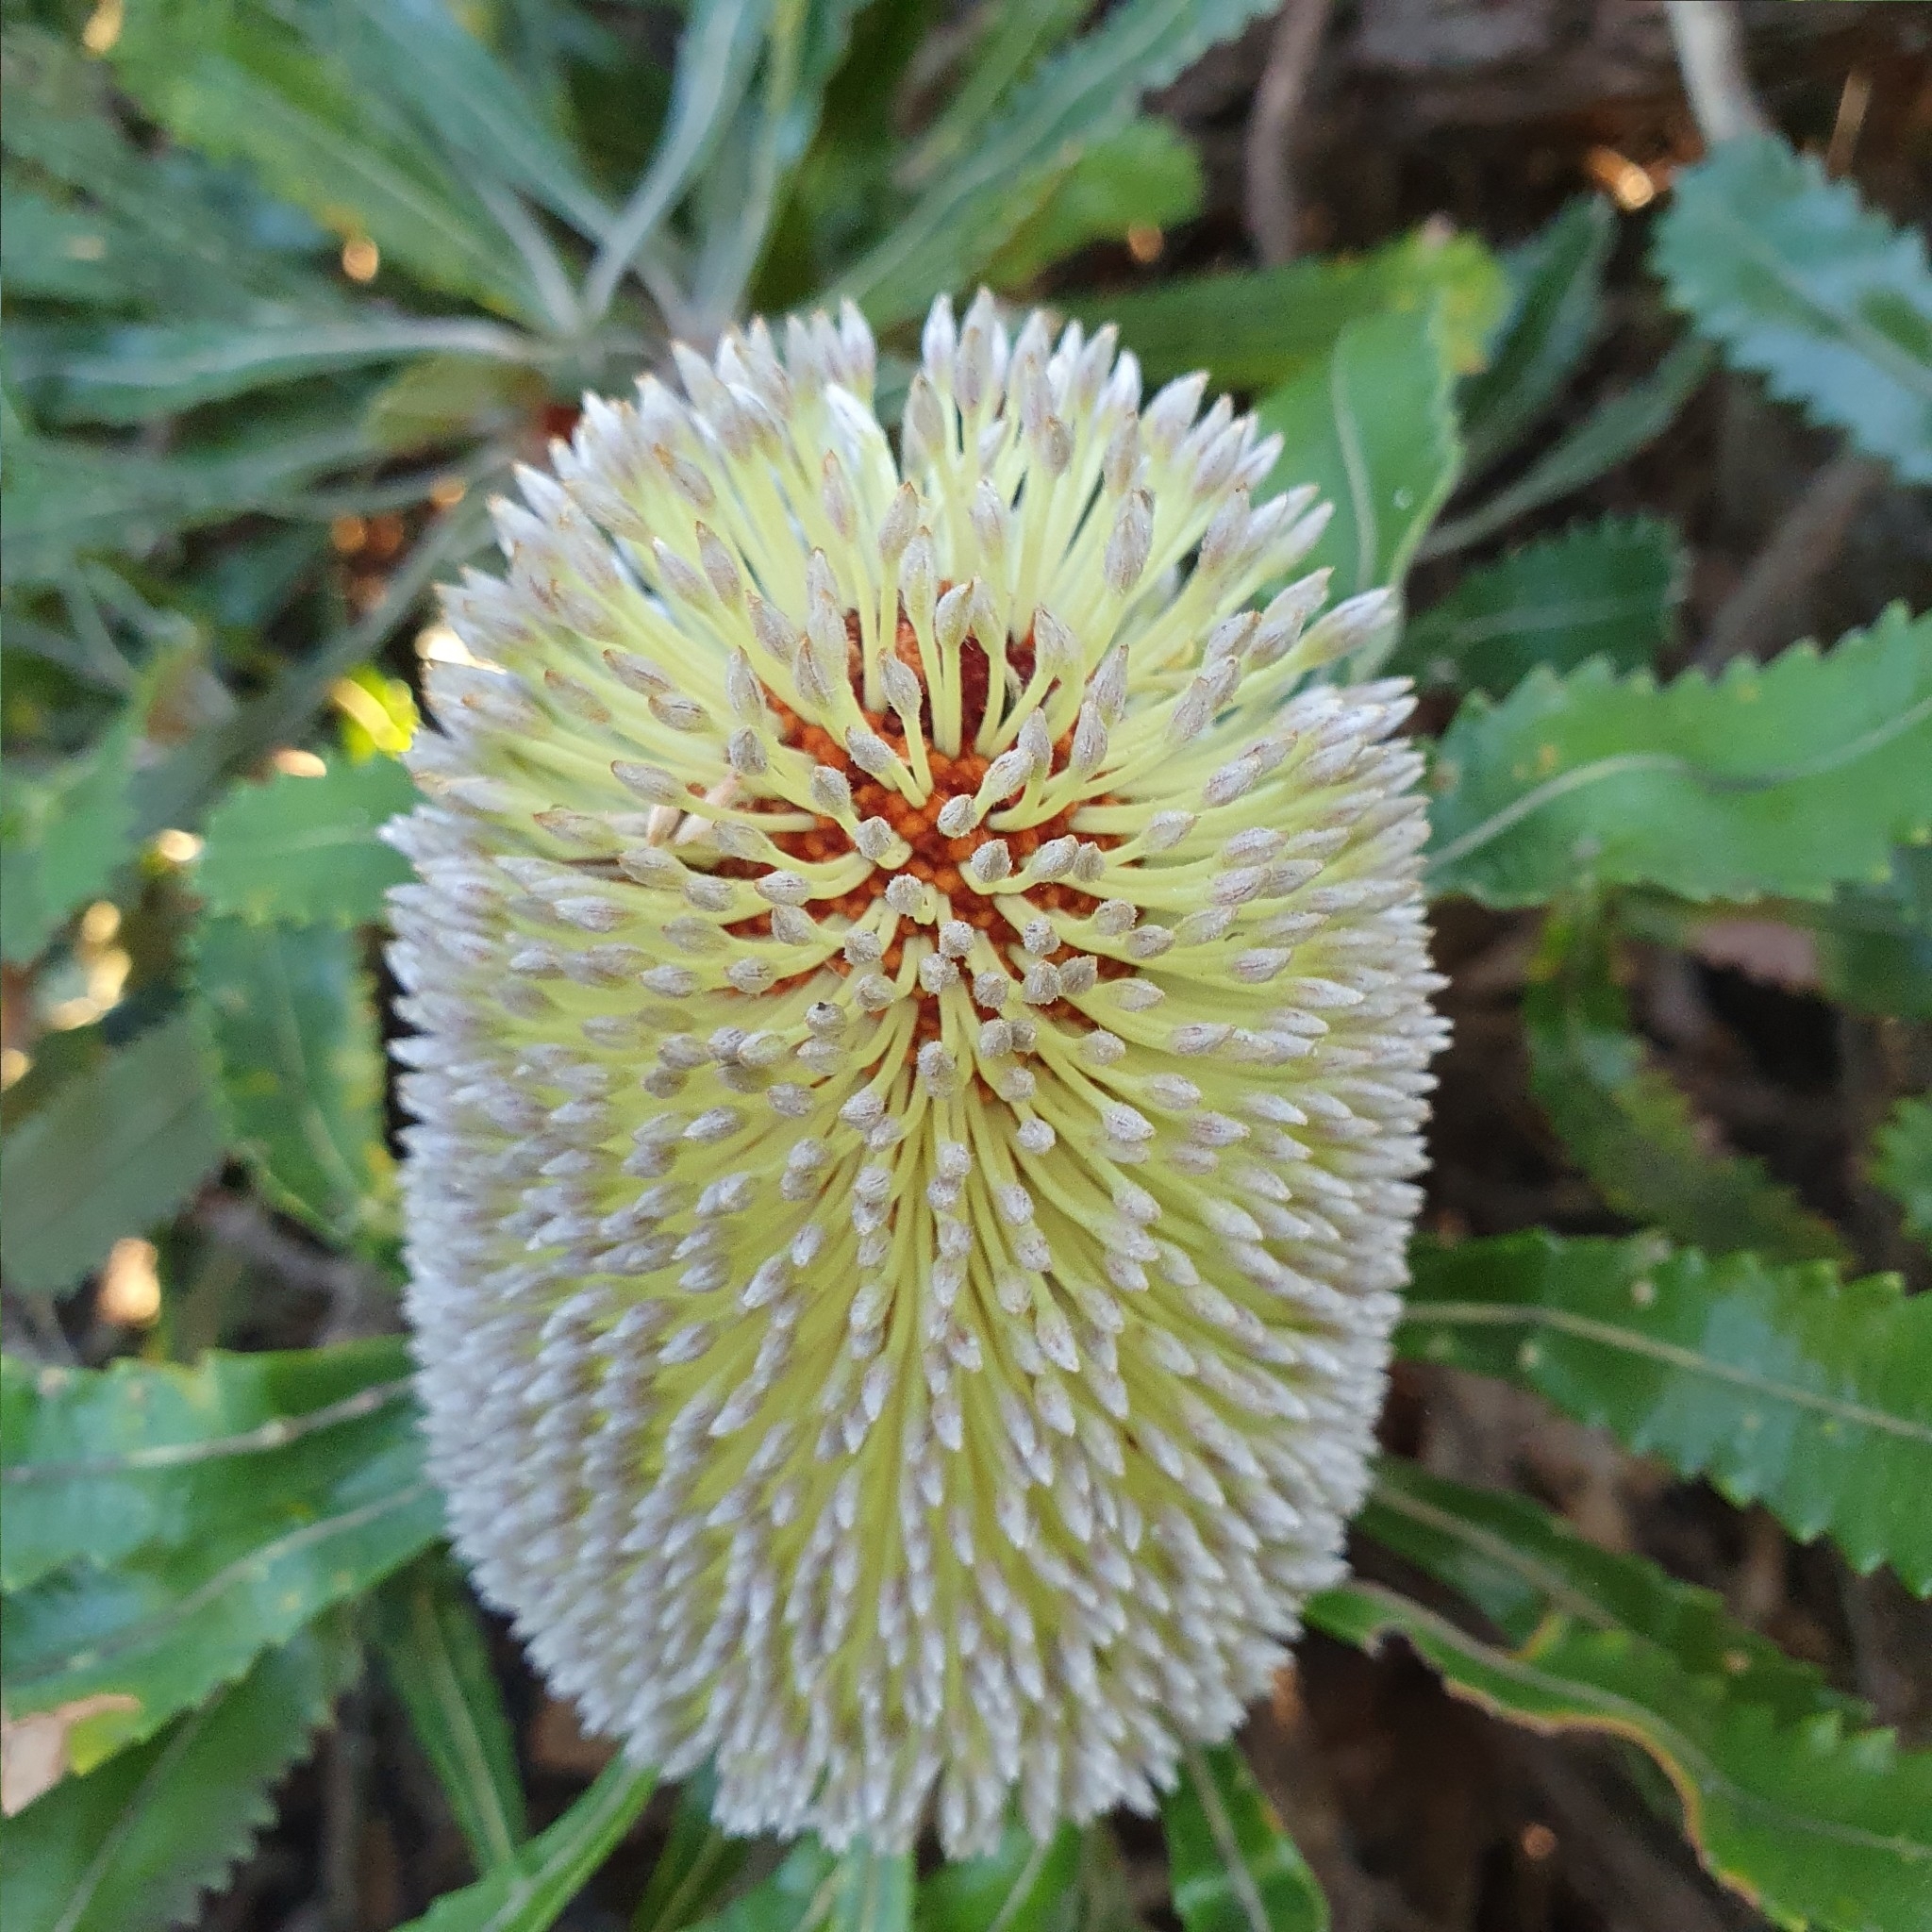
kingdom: Plantae
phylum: Tracheophyta
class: Magnoliopsida
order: Proteales
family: Proteaceae
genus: Banksia
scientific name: Banksia serrata
